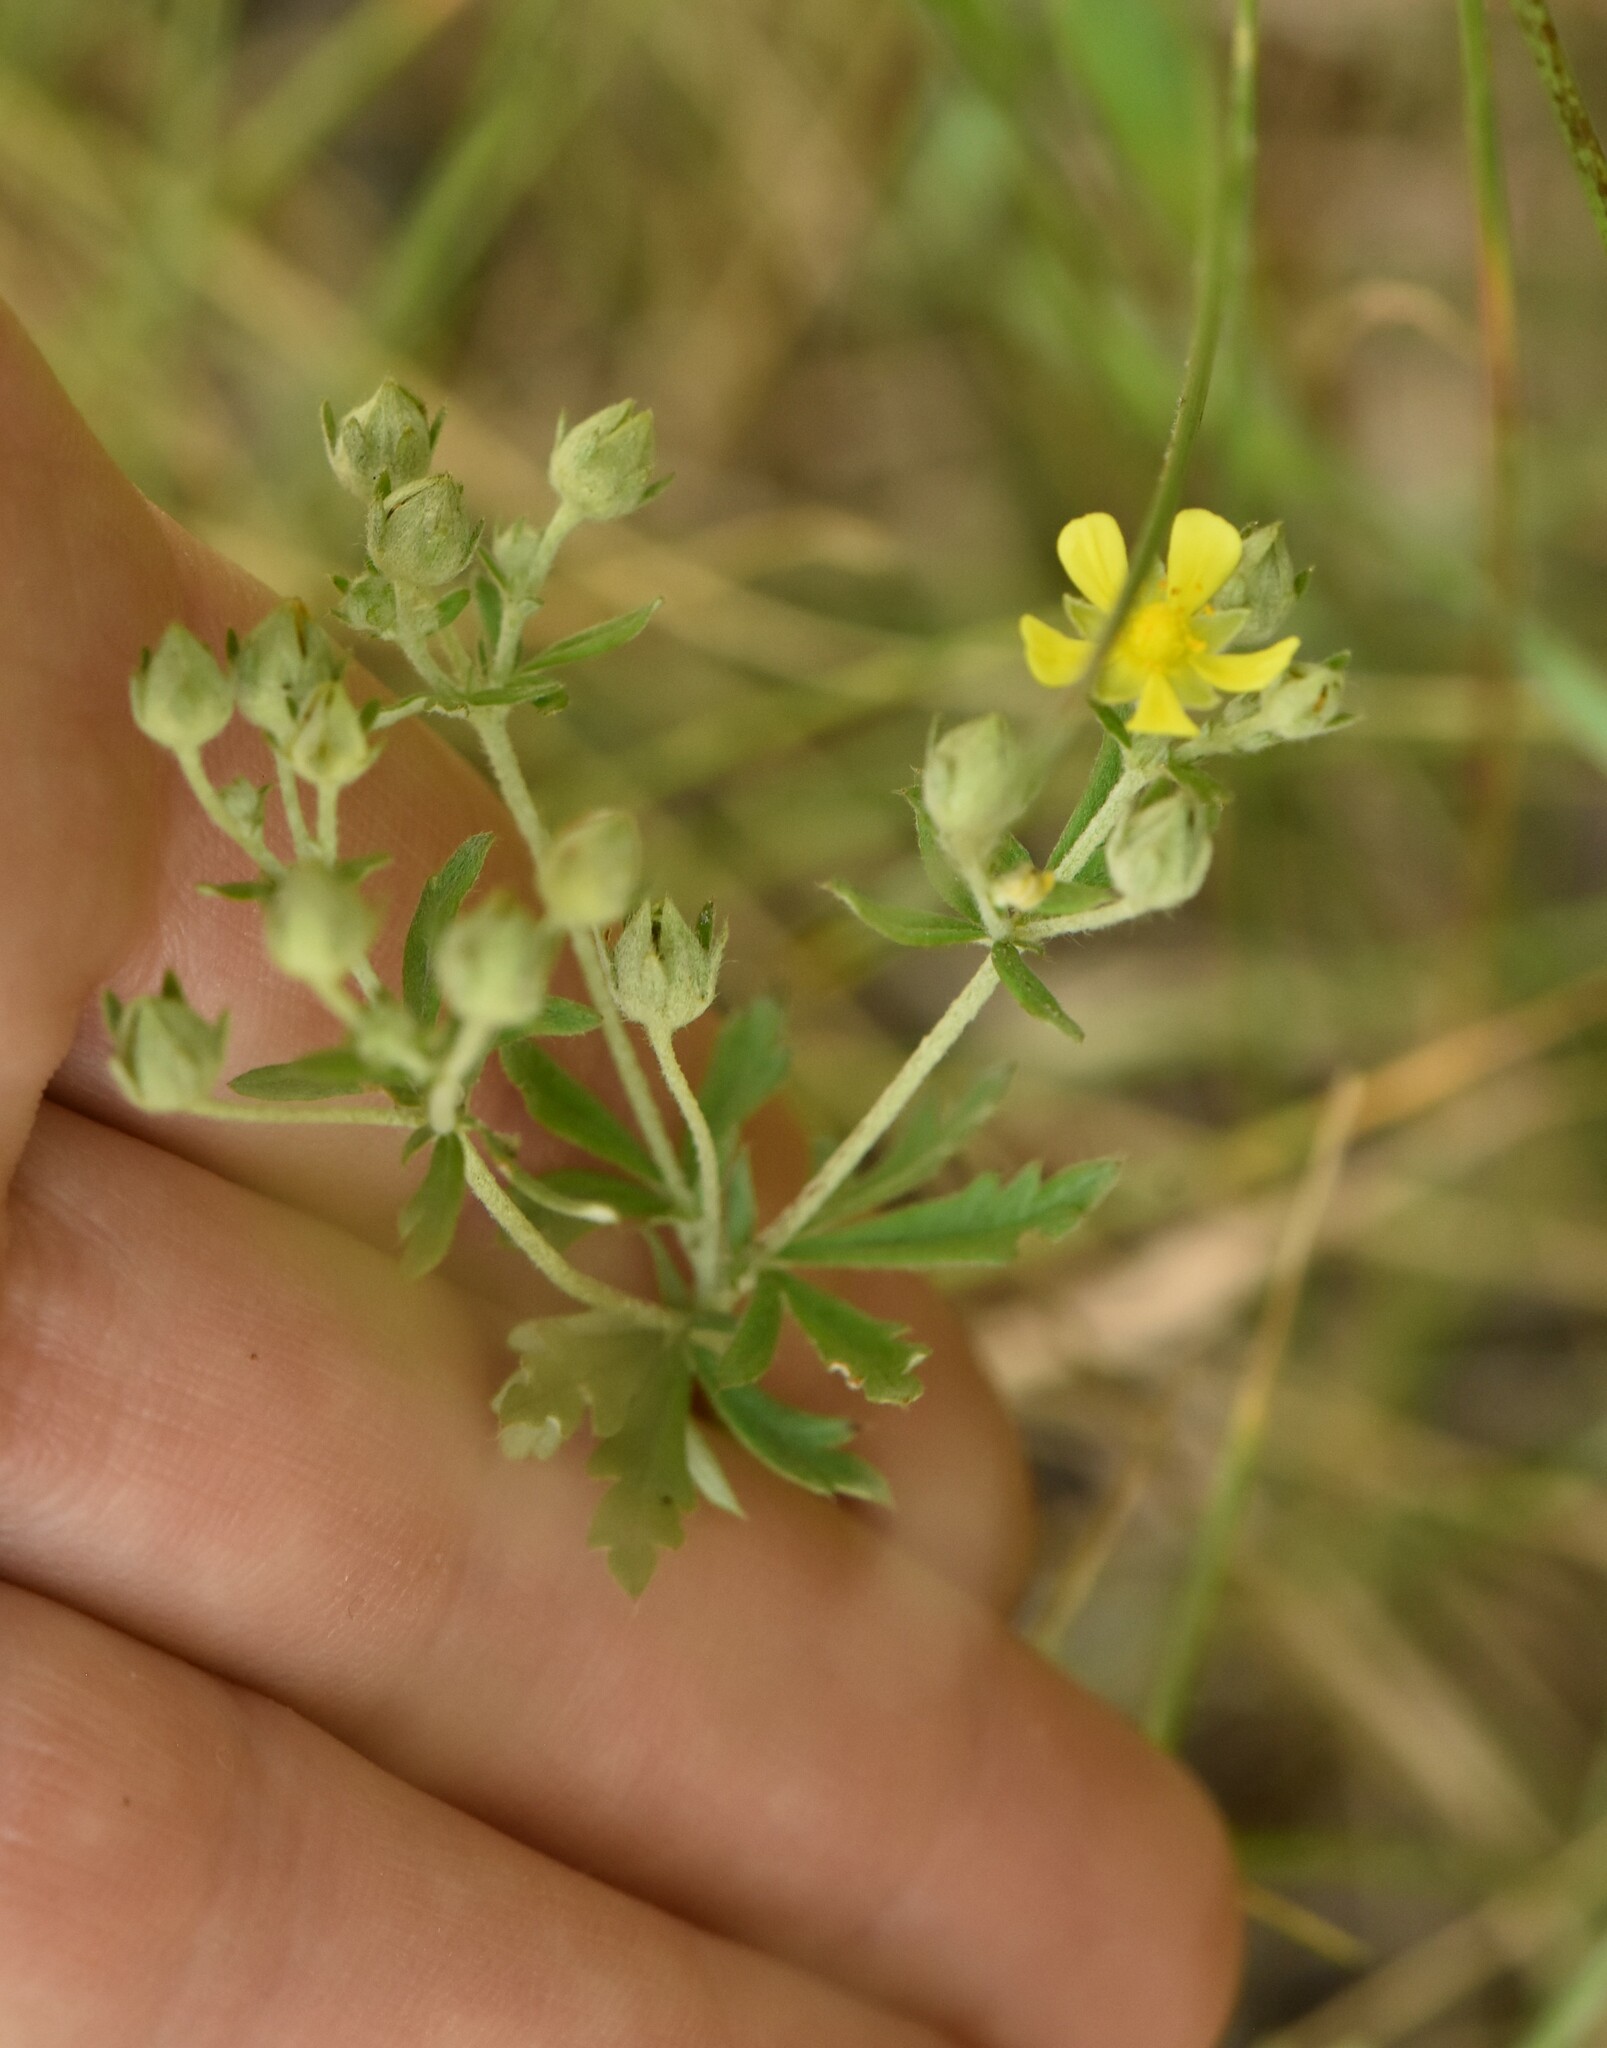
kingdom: Plantae
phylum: Tracheophyta
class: Magnoliopsida
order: Rosales
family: Rosaceae
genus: Potentilla
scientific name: Potentilla argentea
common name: Hoary cinquefoil
